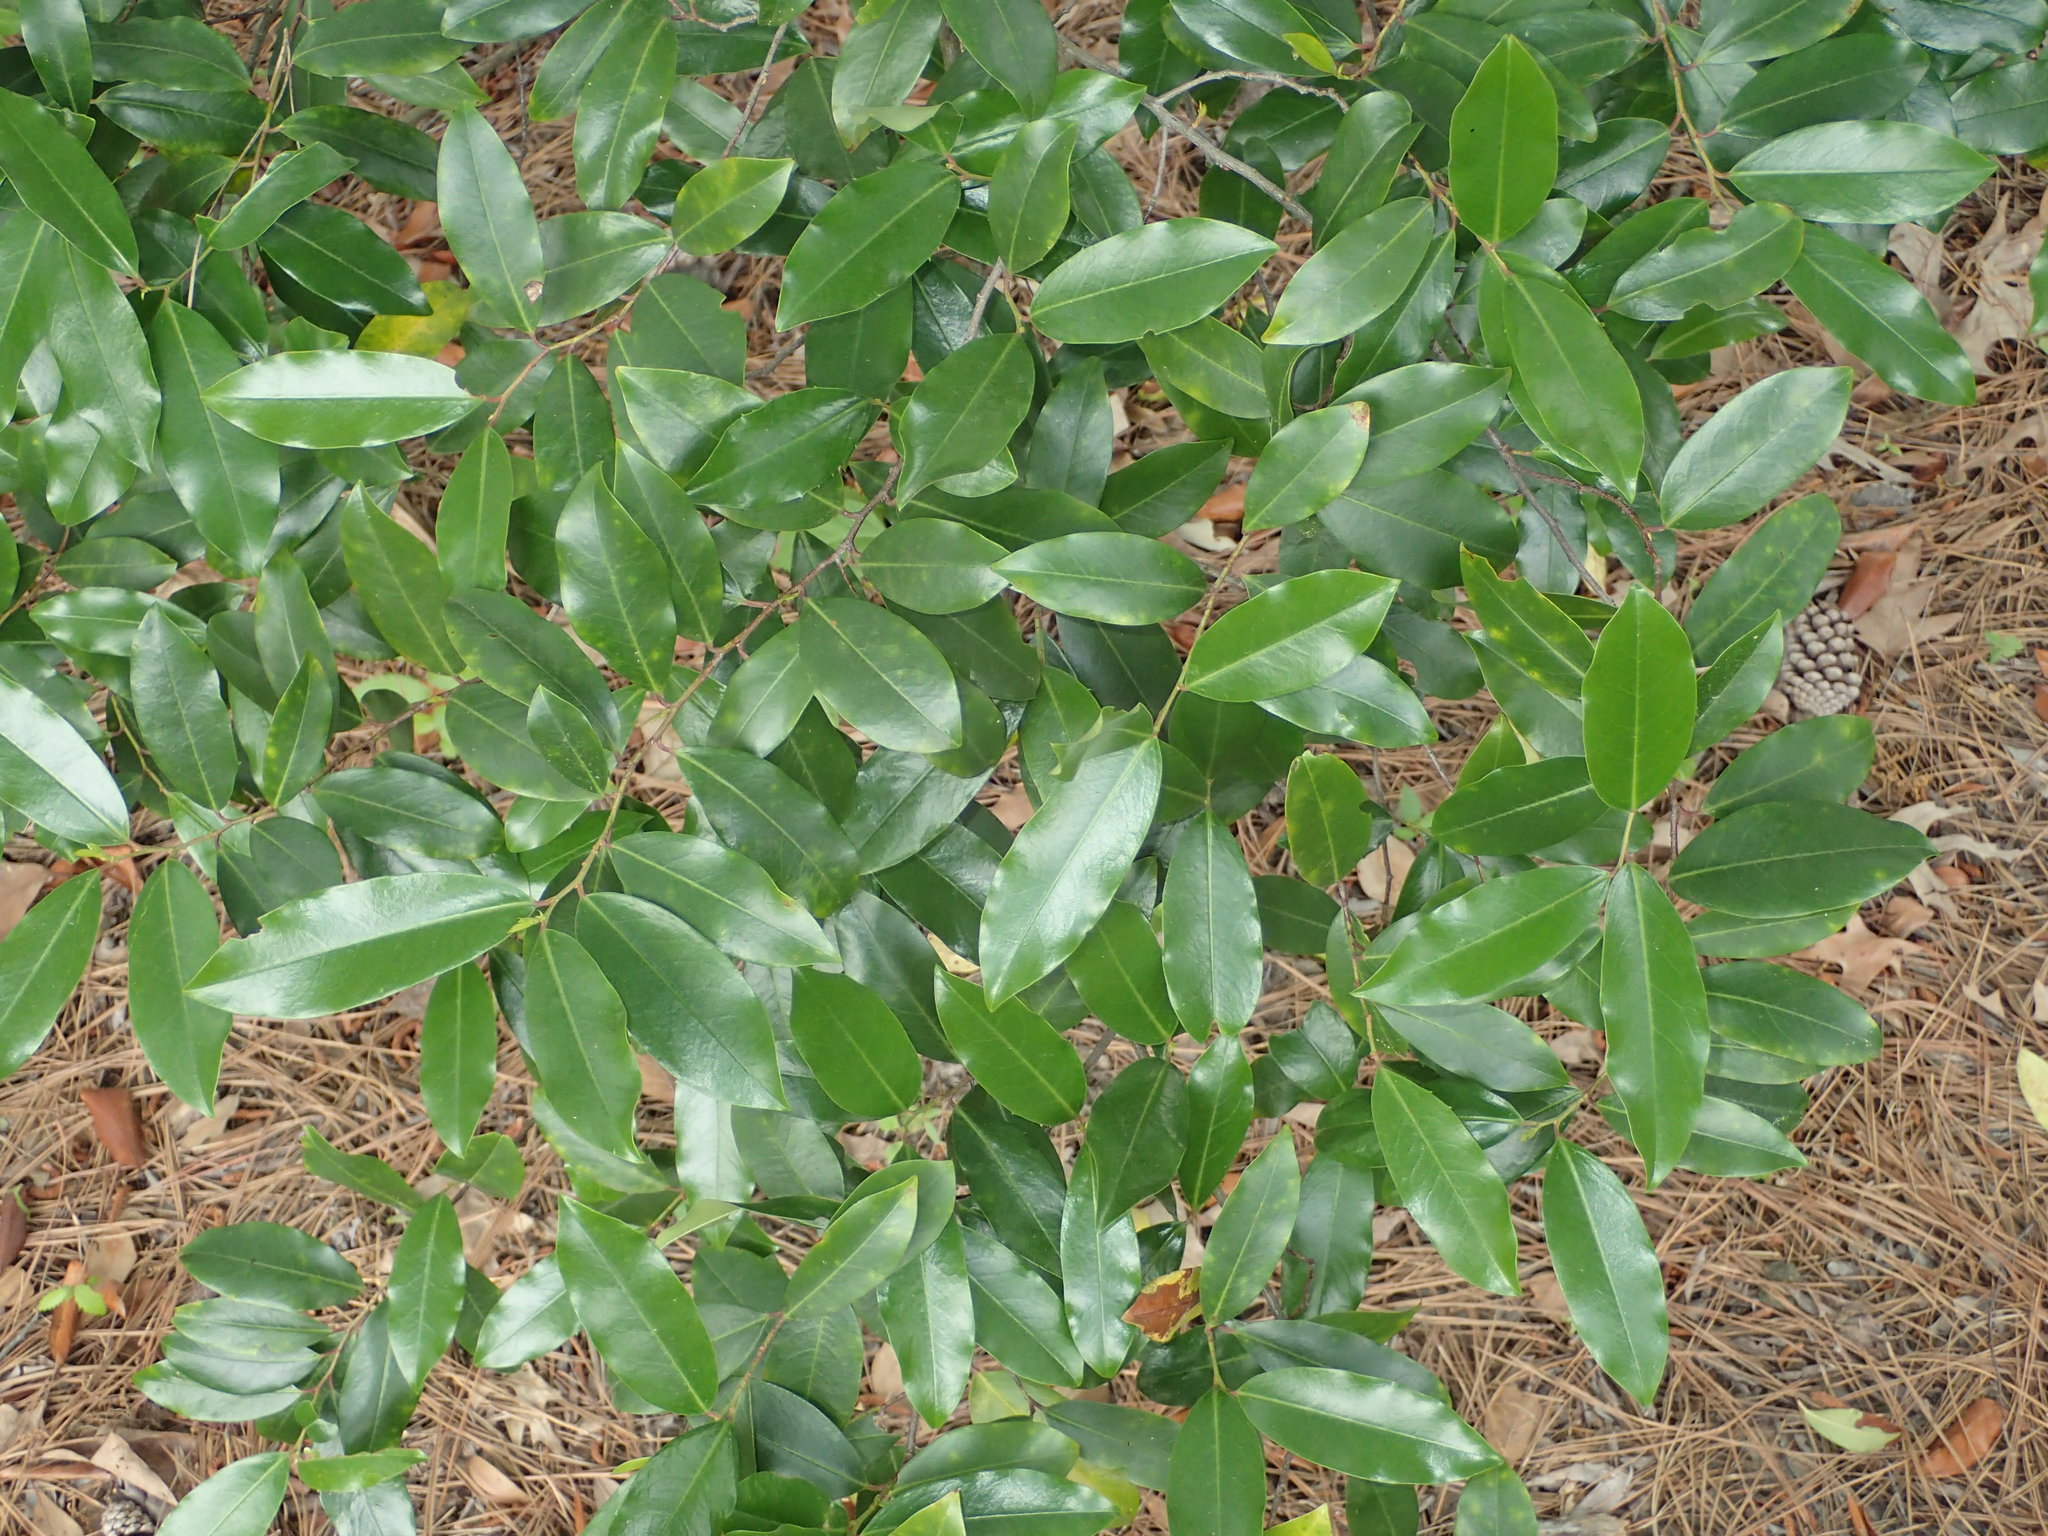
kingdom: Plantae
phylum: Tracheophyta
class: Magnoliopsida
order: Rosales
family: Rosaceae
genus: Prunus
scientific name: Prunus caroliniana
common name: Carolina laurel cherry
